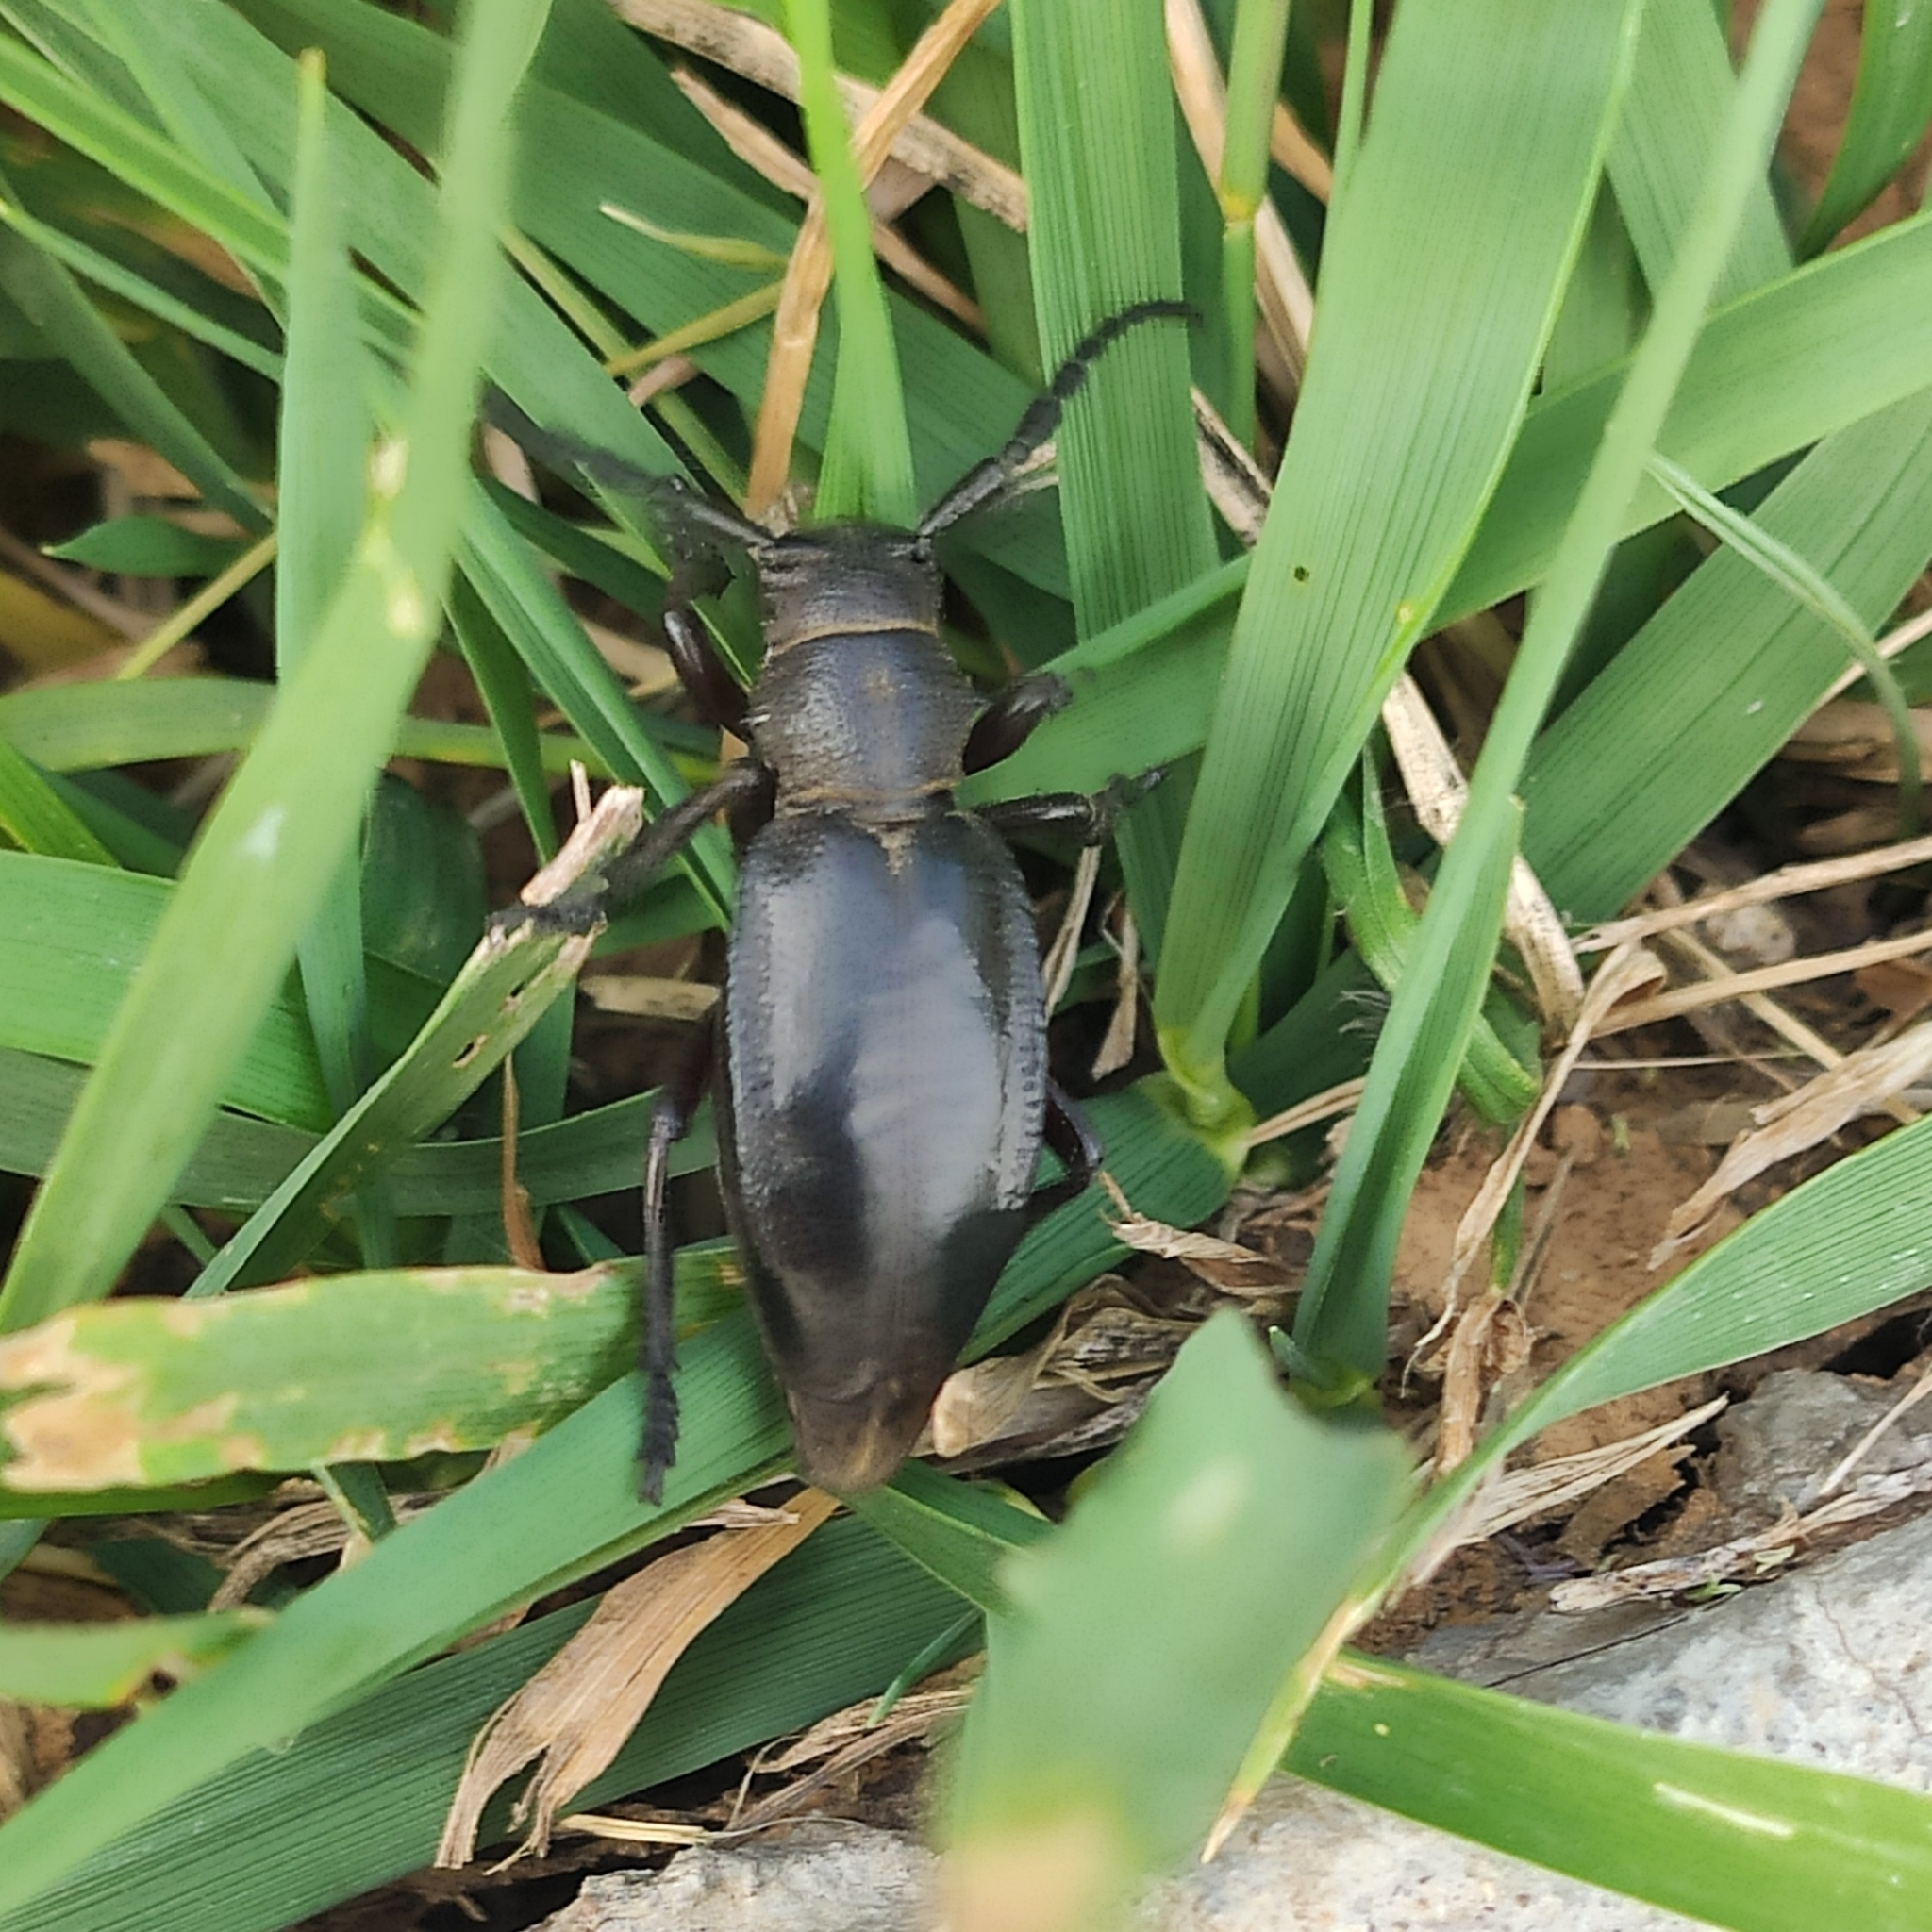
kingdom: Animalia
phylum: Arthropoda
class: Insecta
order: Coleoptera
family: Cerambycidae
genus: Dorcadion
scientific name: Dorcadion carinatum
